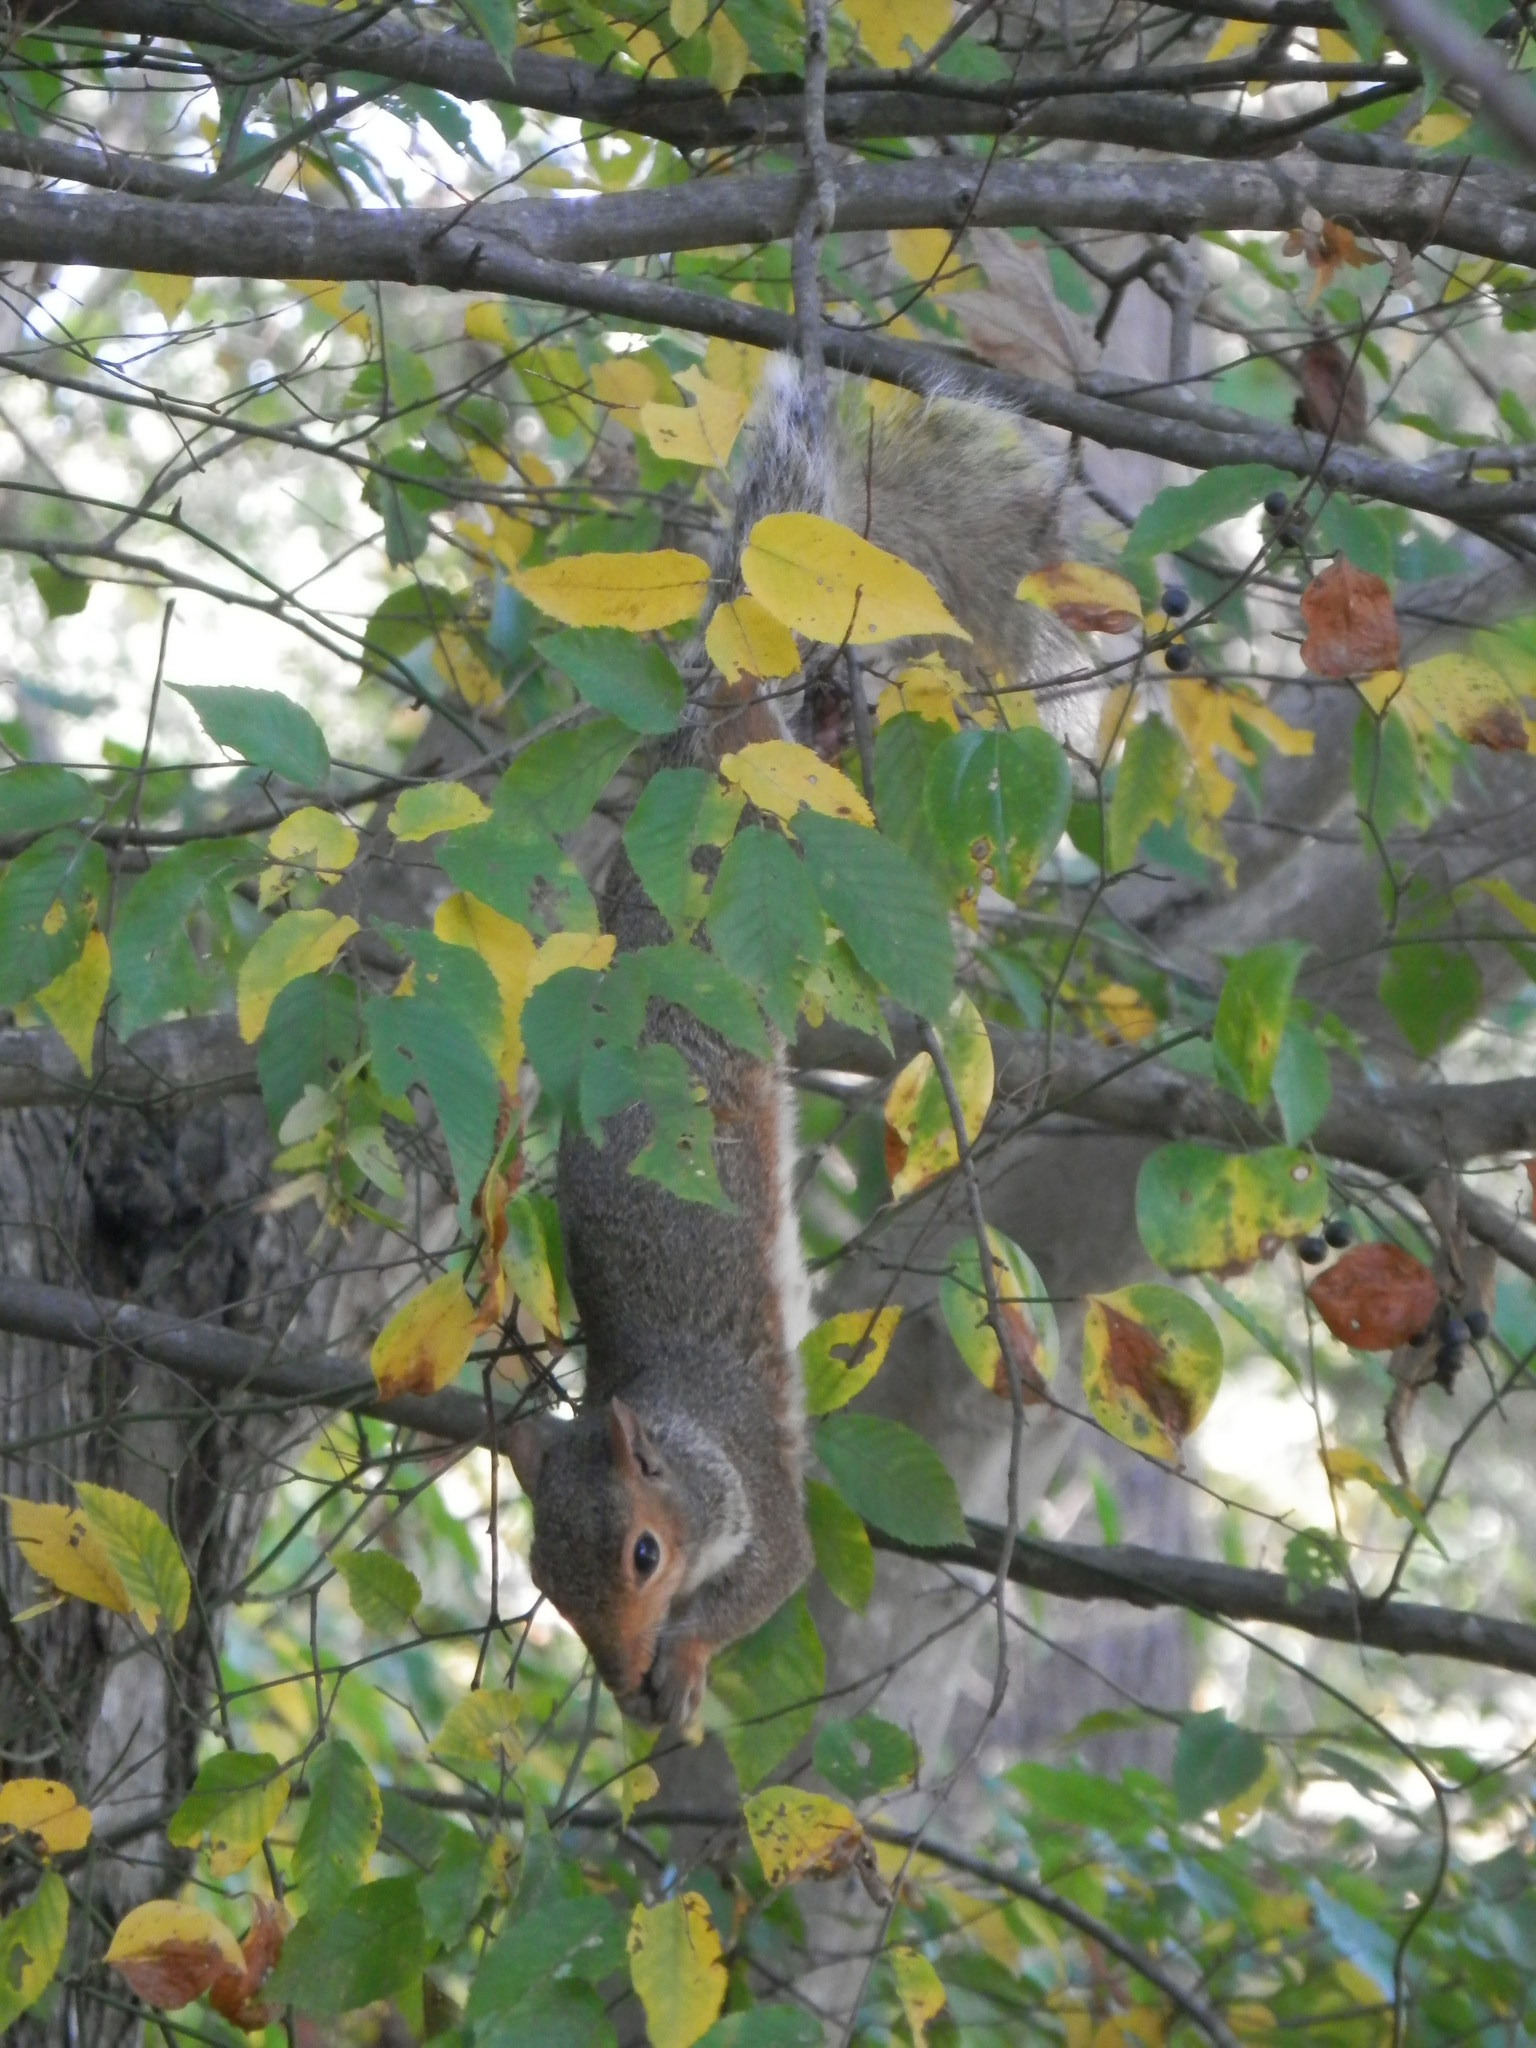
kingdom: Animalia
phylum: Chordata
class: Mammalia
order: Rodentia
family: Sciuridae
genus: Sciurus
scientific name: Sciurus carolinensis
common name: Eastern gray squirrel
